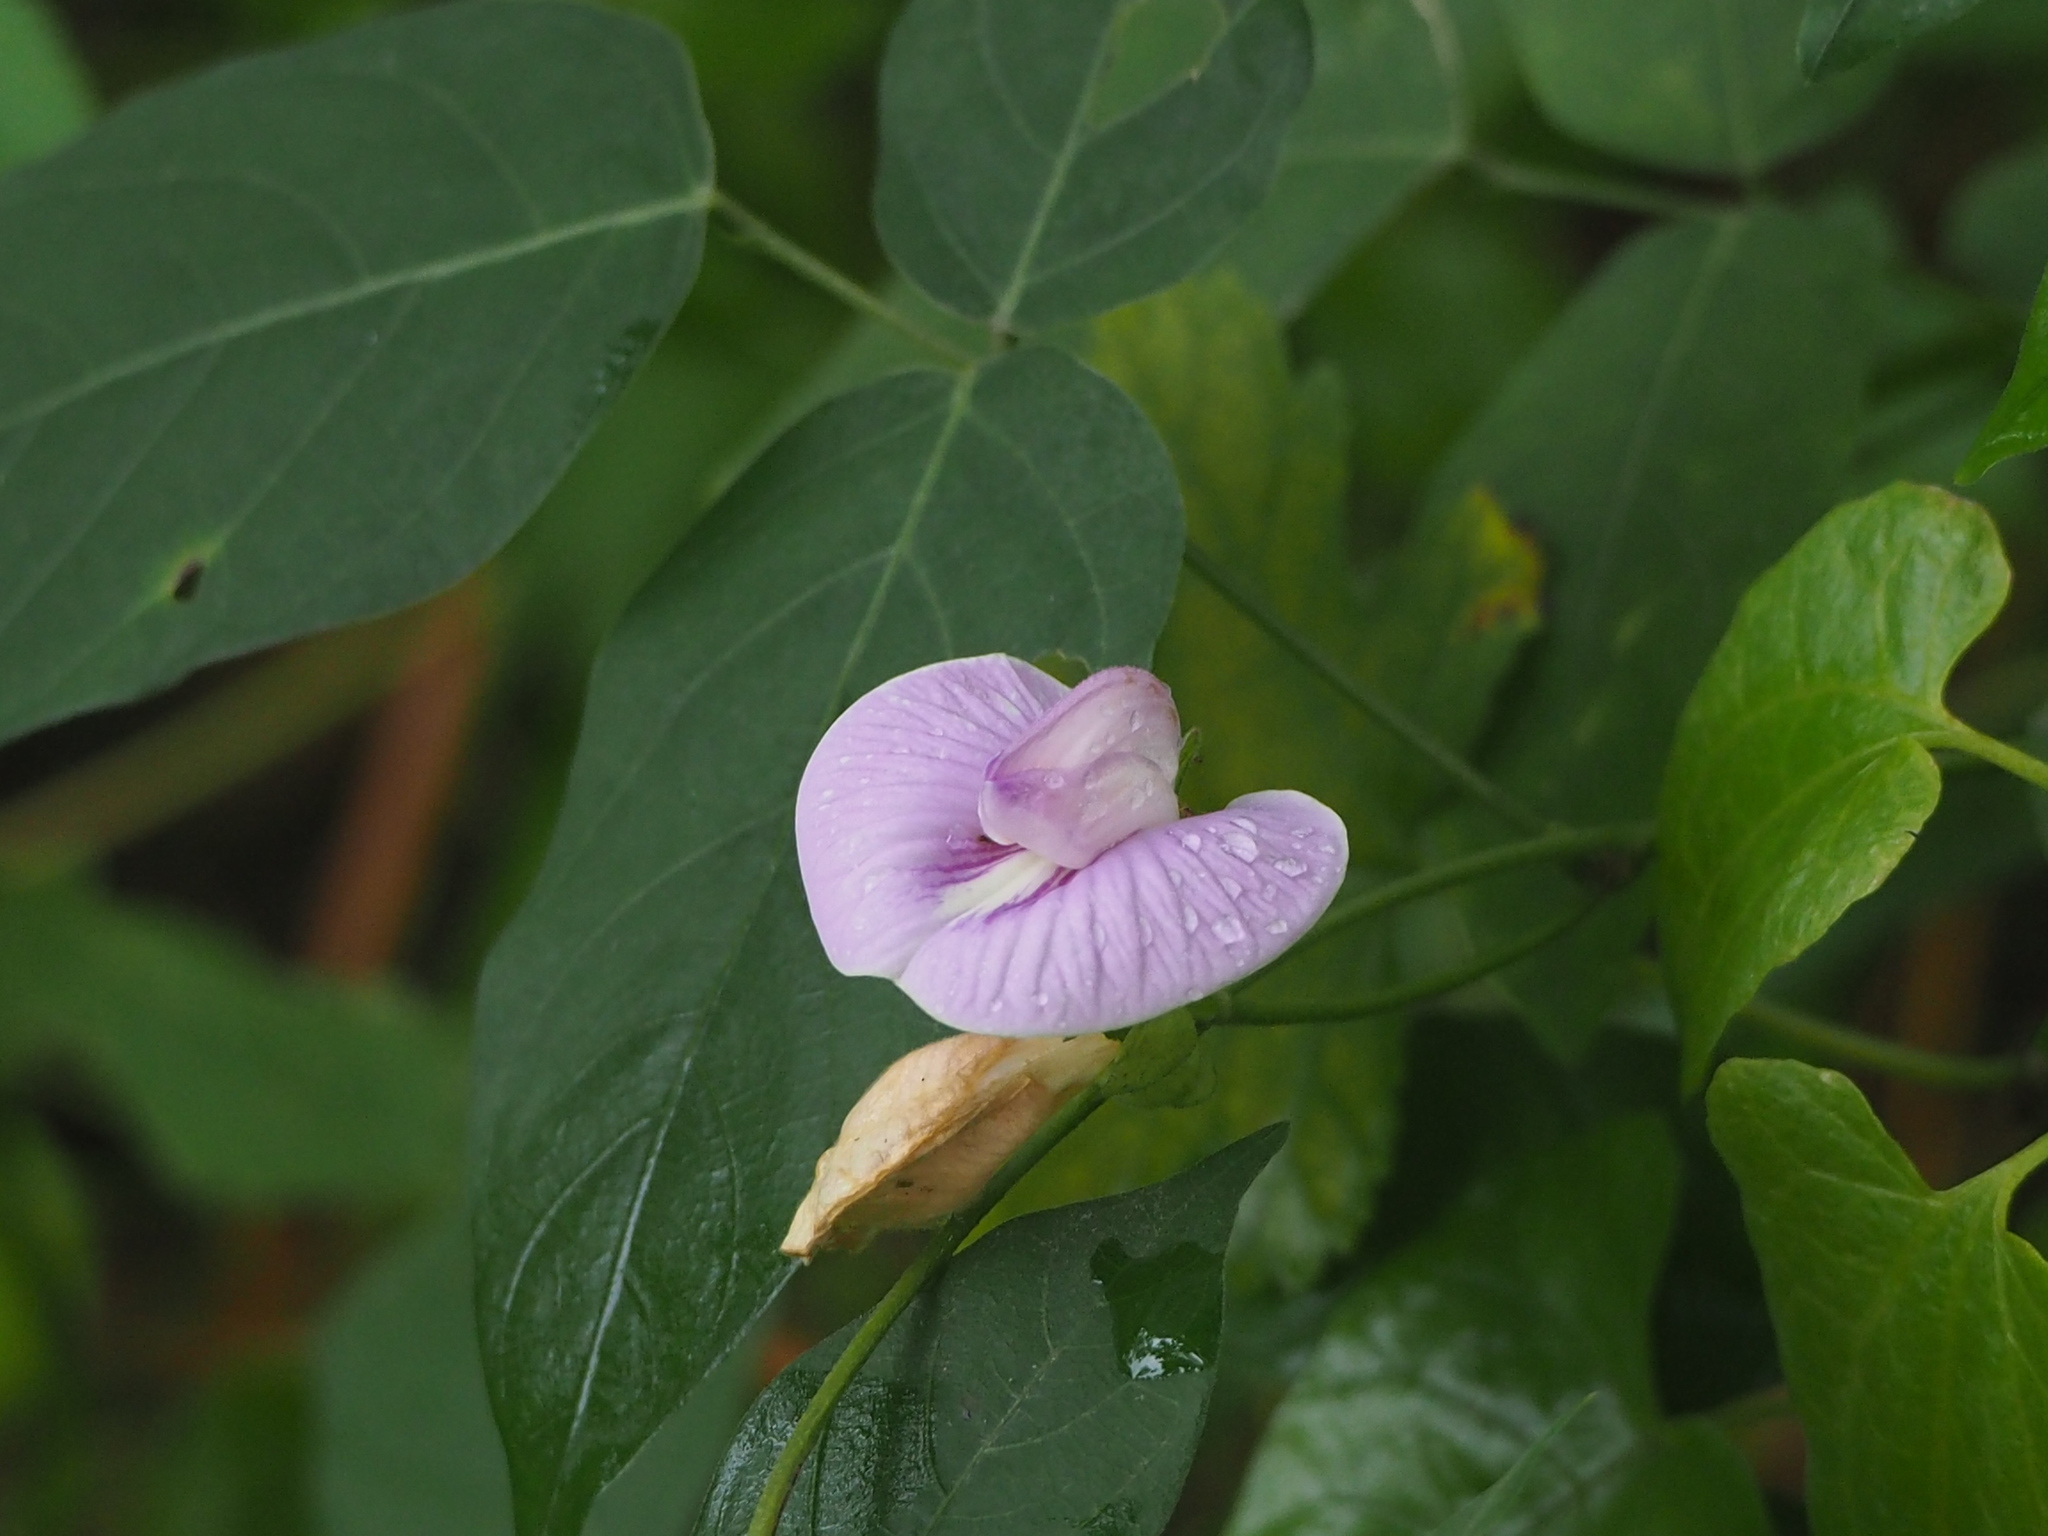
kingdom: Plantae
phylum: Tracheophyta
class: Magnoliopsida
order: Fabales
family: Fabaceae
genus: Centrosema
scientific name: Centrosema pubescens
